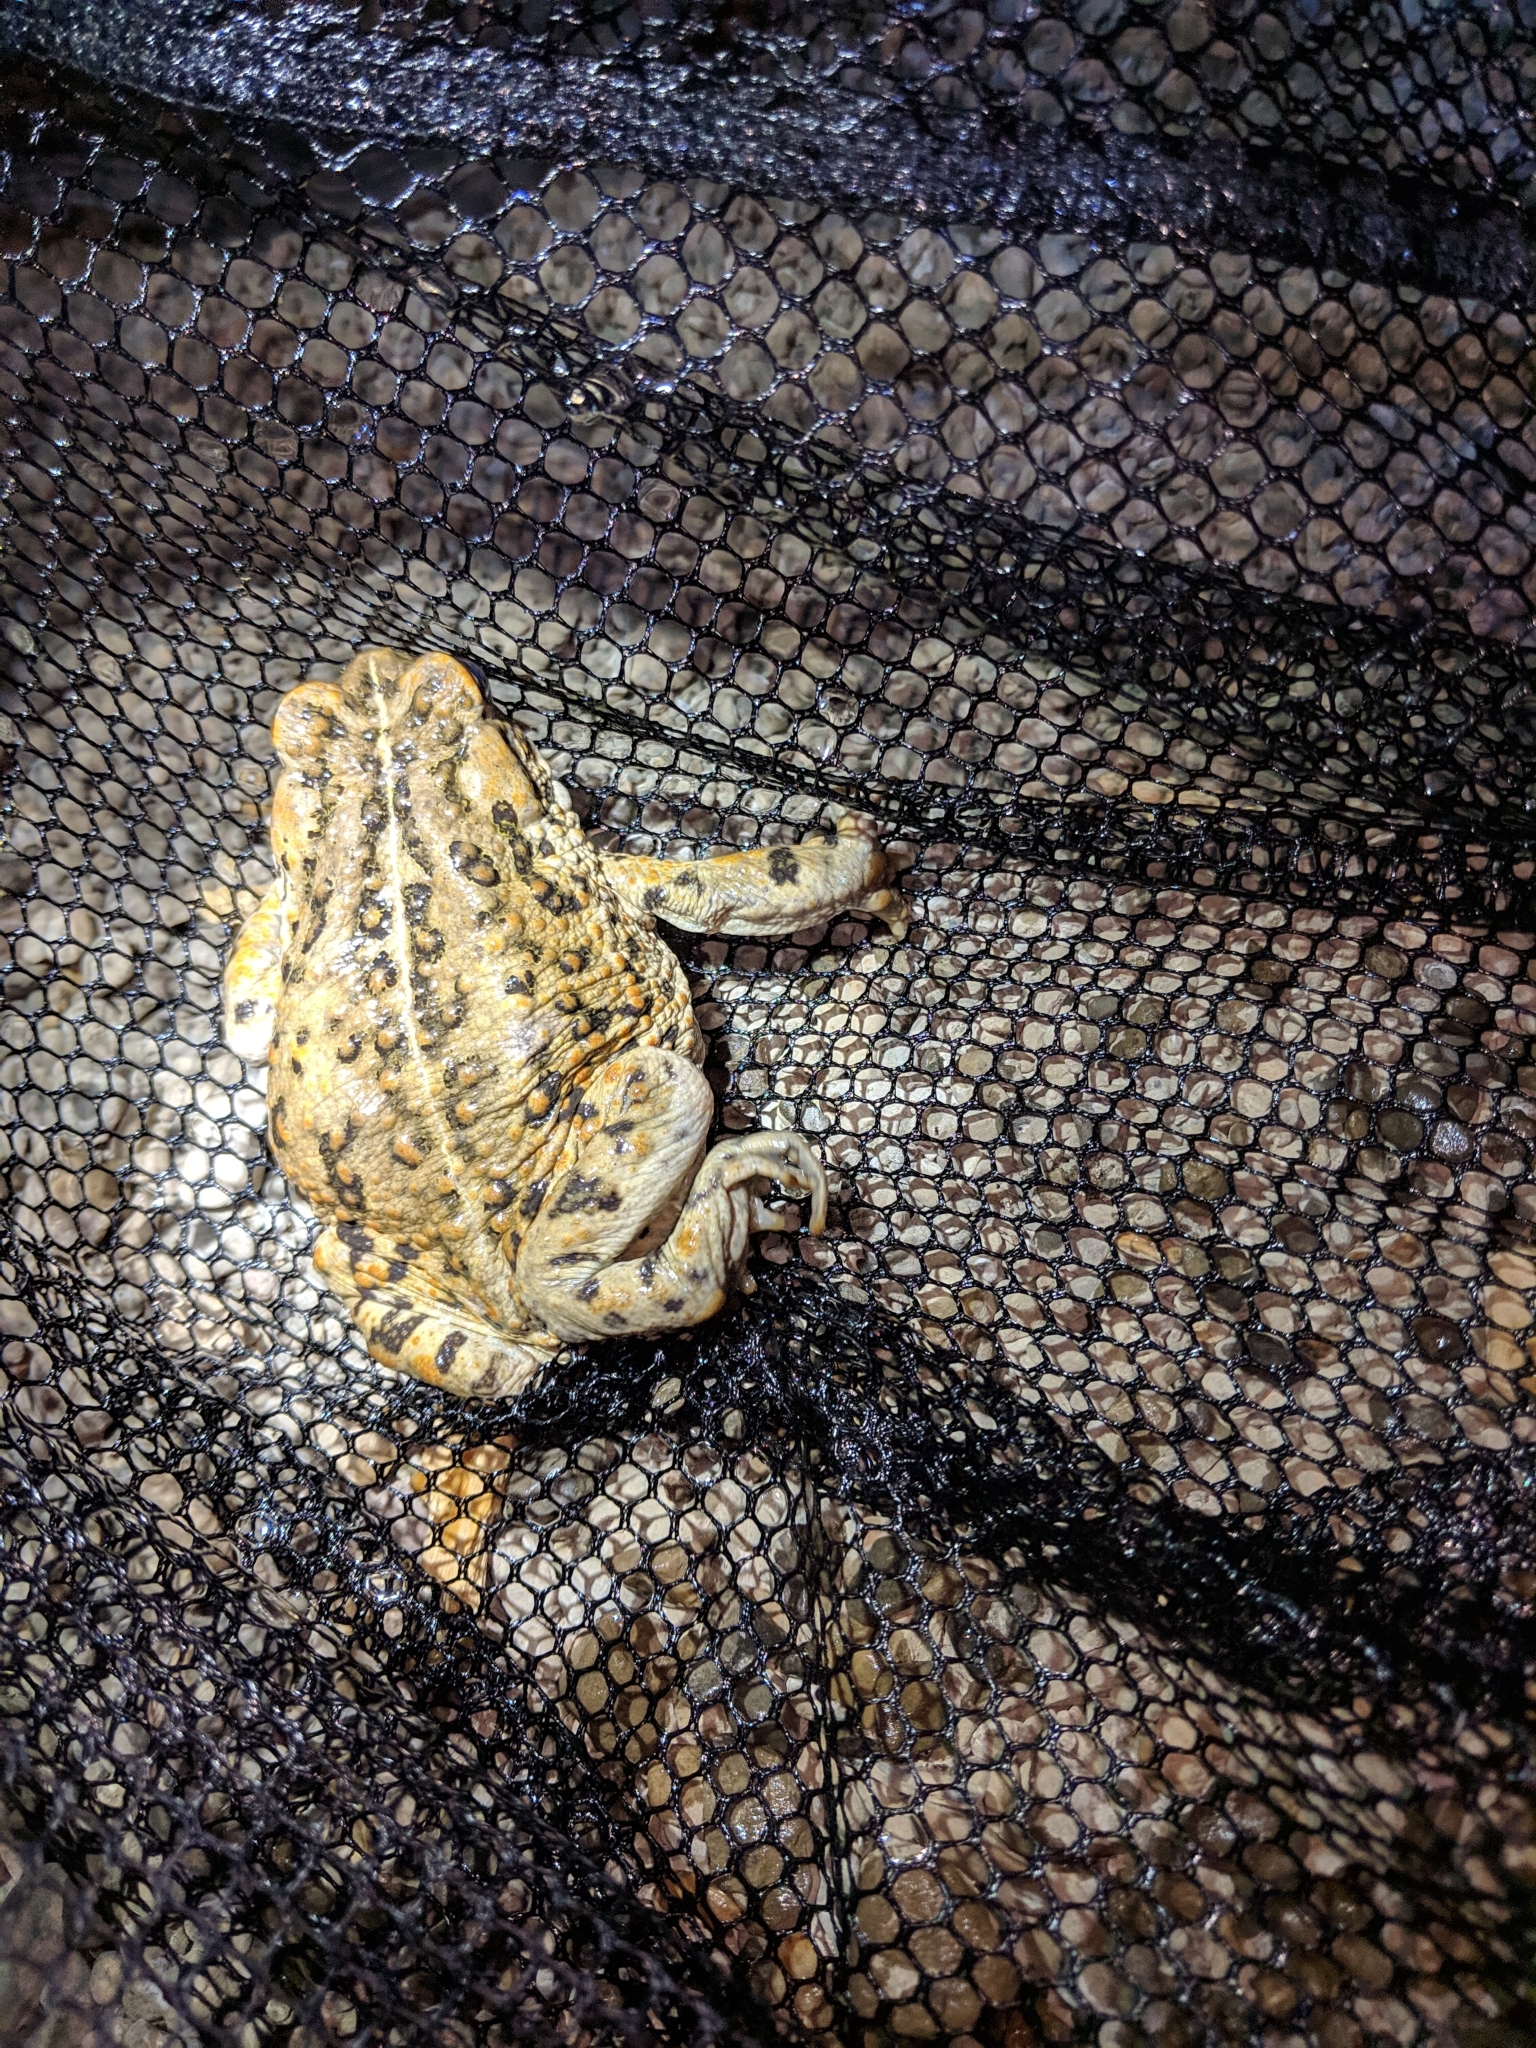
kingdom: Animalia
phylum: Chordata
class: Amphibia
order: Anura
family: Bufonidae
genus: Anaxyrus
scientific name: Anaxyrus boreas
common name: Western toad
